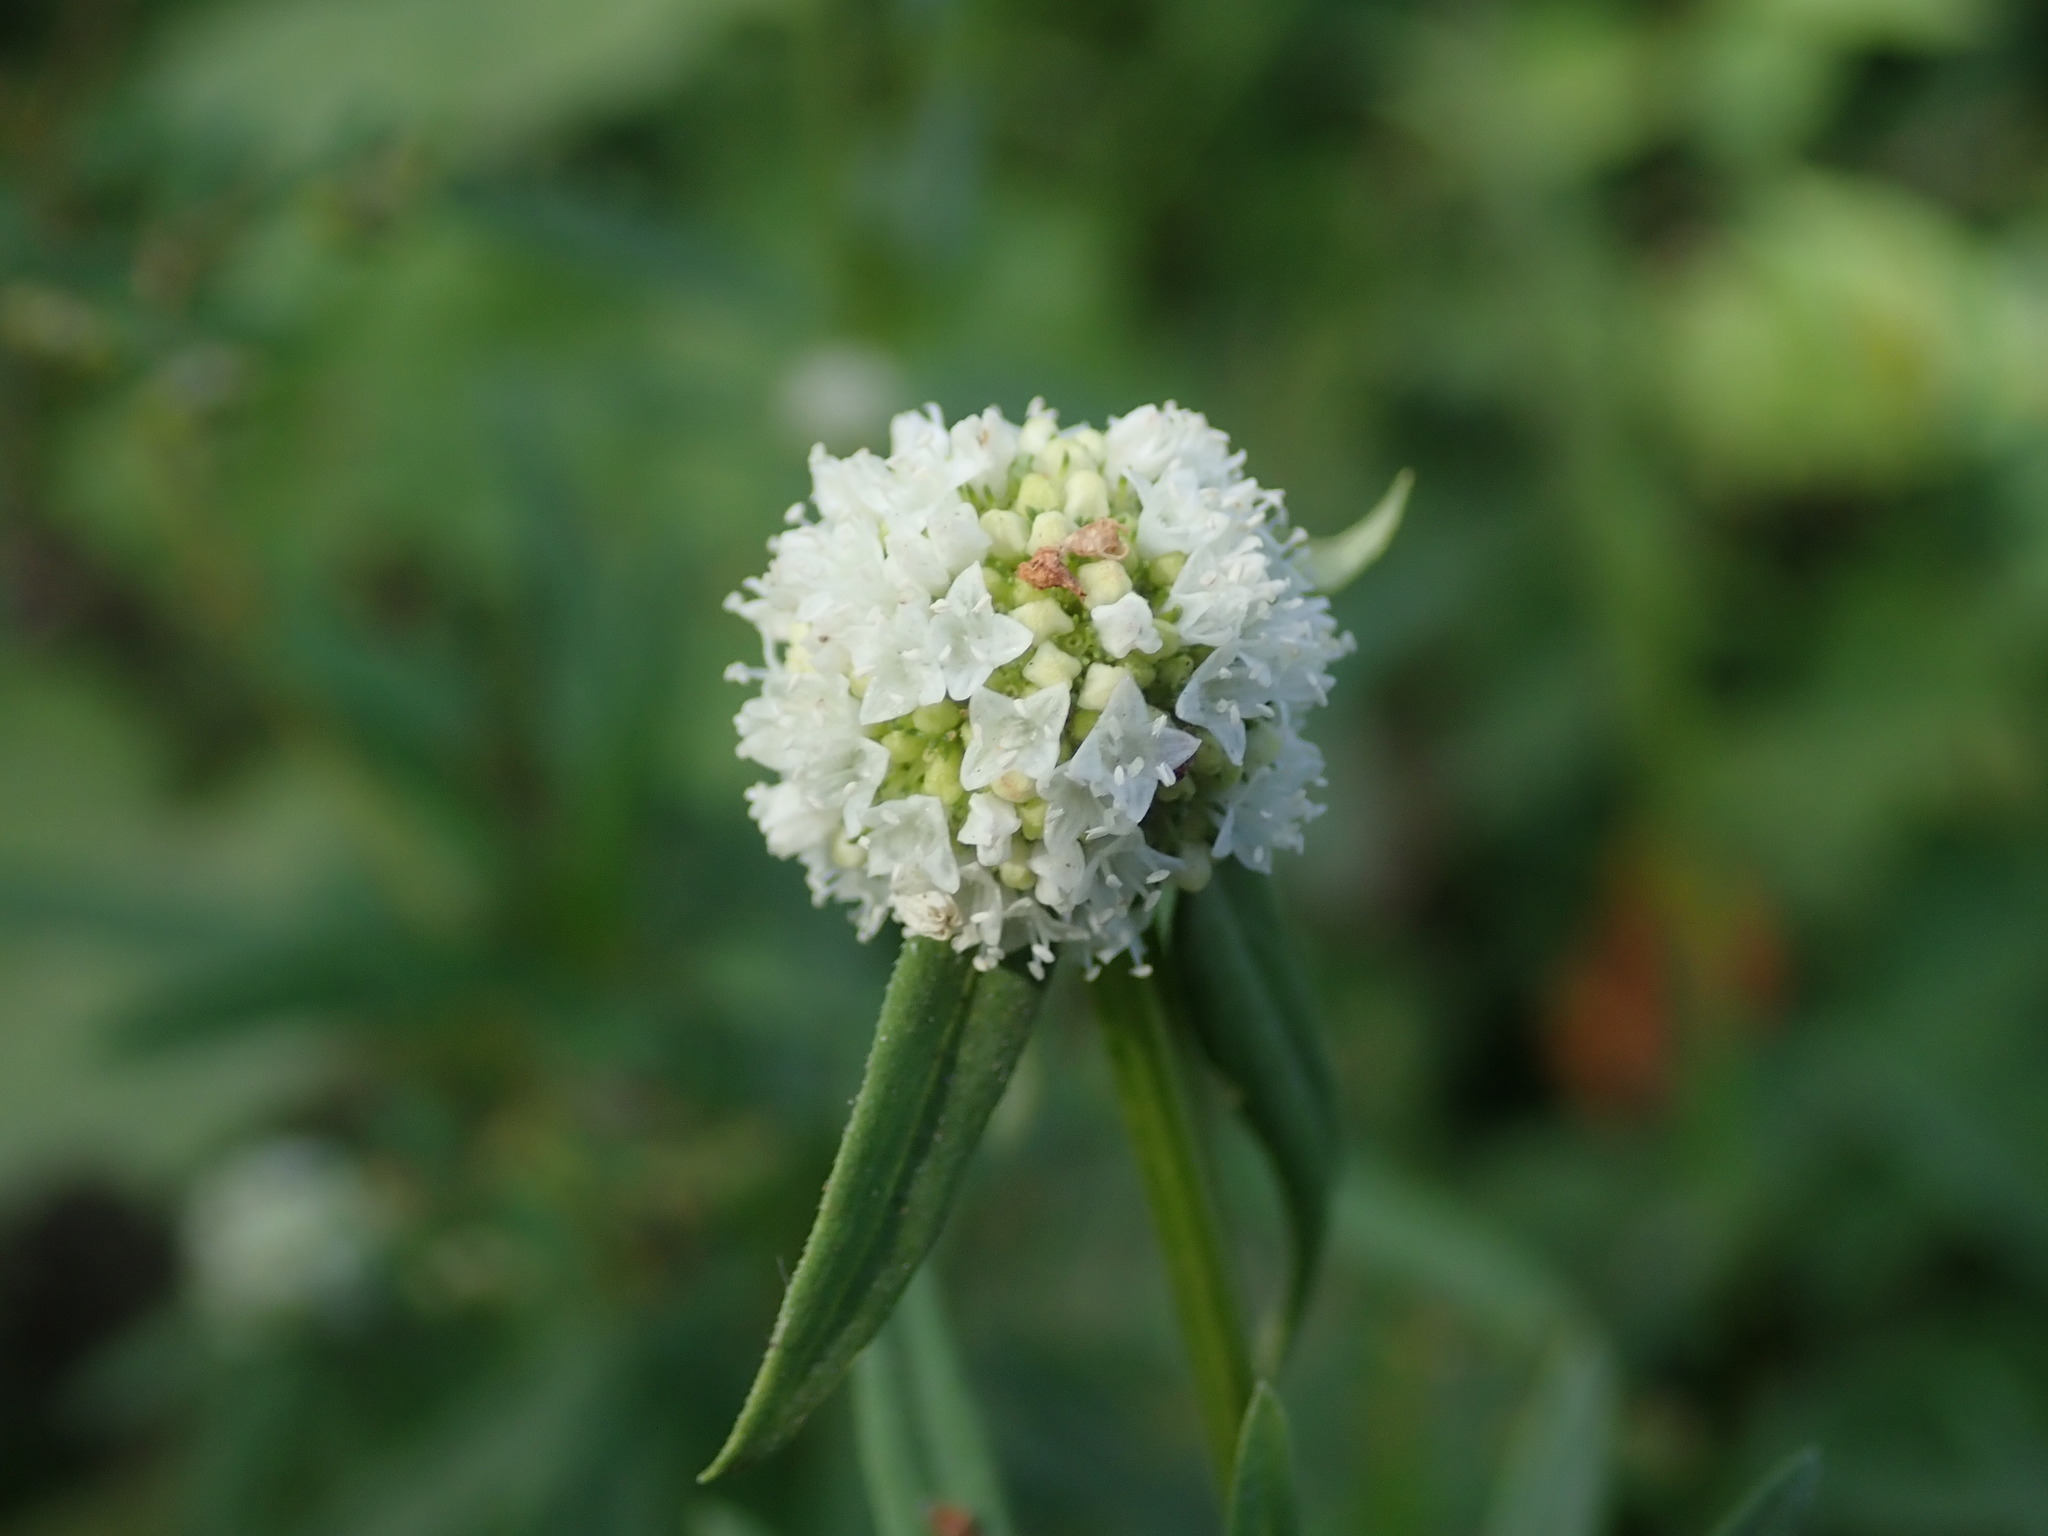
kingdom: Plantae
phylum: Tracheophyta
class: Magnoliopsida
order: Gentianales
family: Rubiaceae
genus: Spermacoce
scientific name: Spermacoce verticillata
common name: Shrubby false buttonweed
